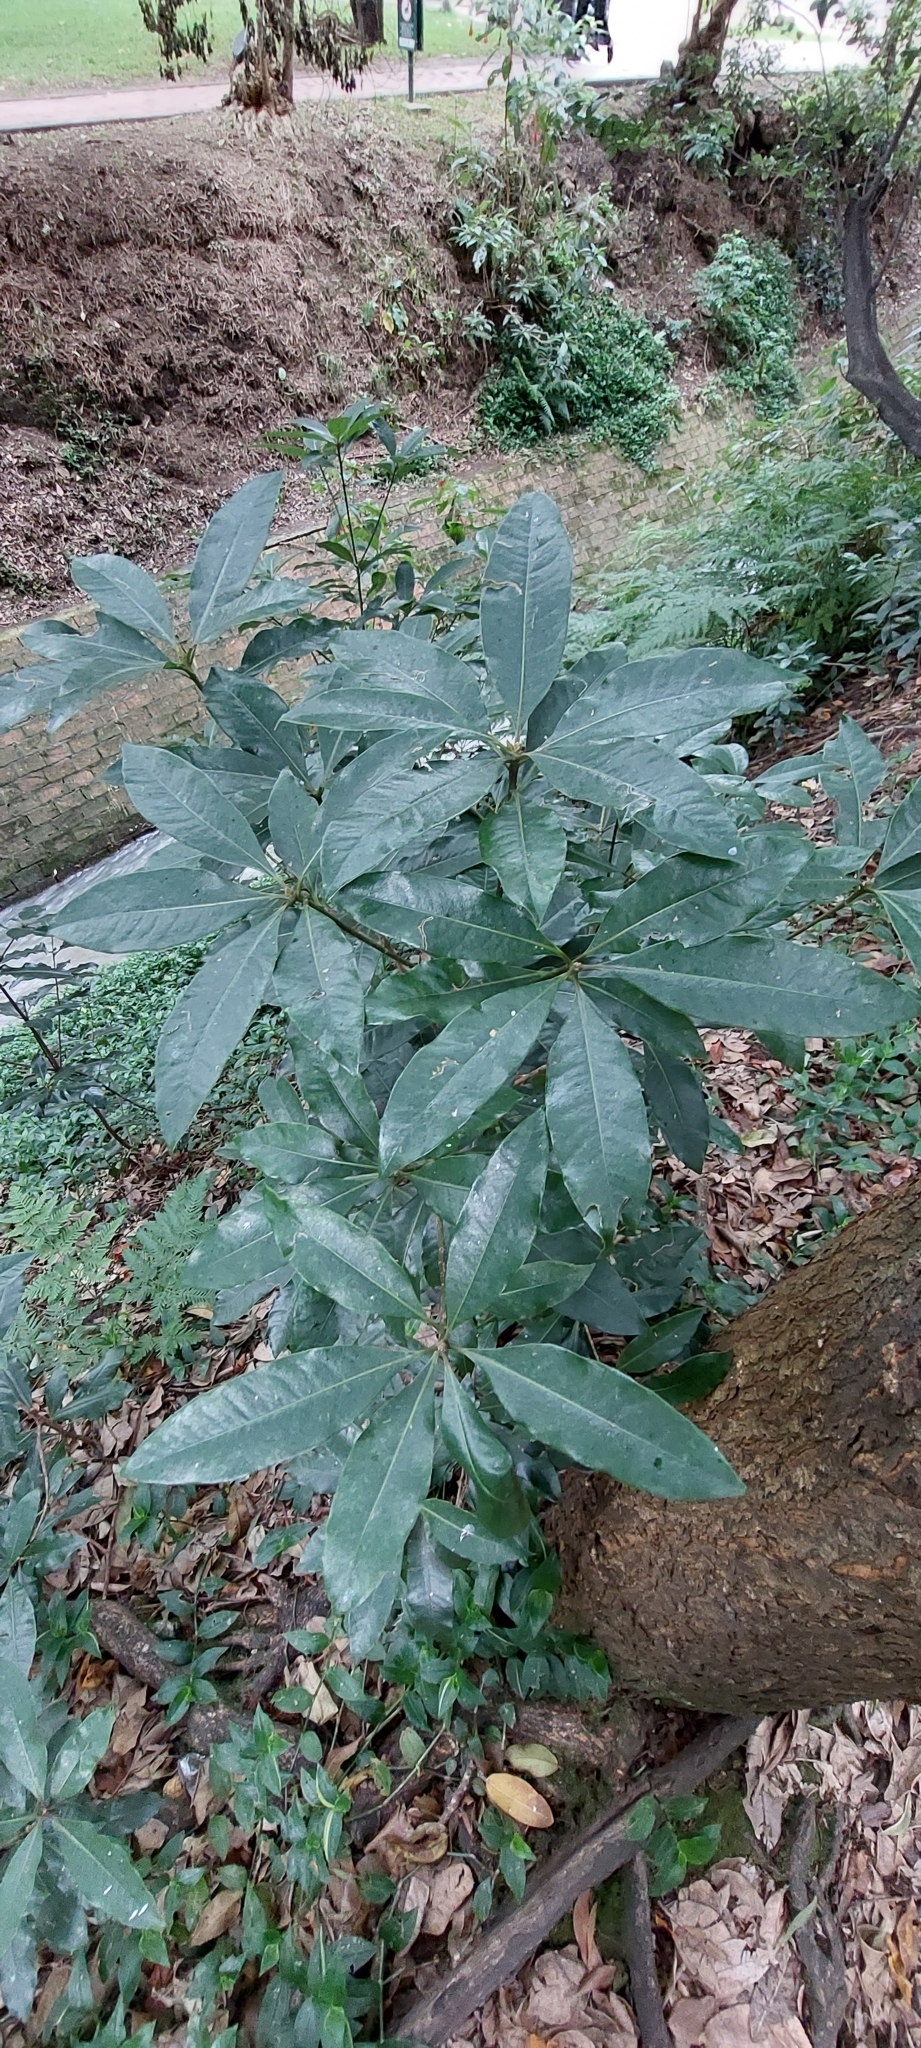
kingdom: Plantae
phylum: Tracheophyta
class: Magnoliopsida
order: Apiales
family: Pittosporaceae
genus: Pittosporum
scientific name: Pittosporum undulatum
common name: Australian cheesewood
